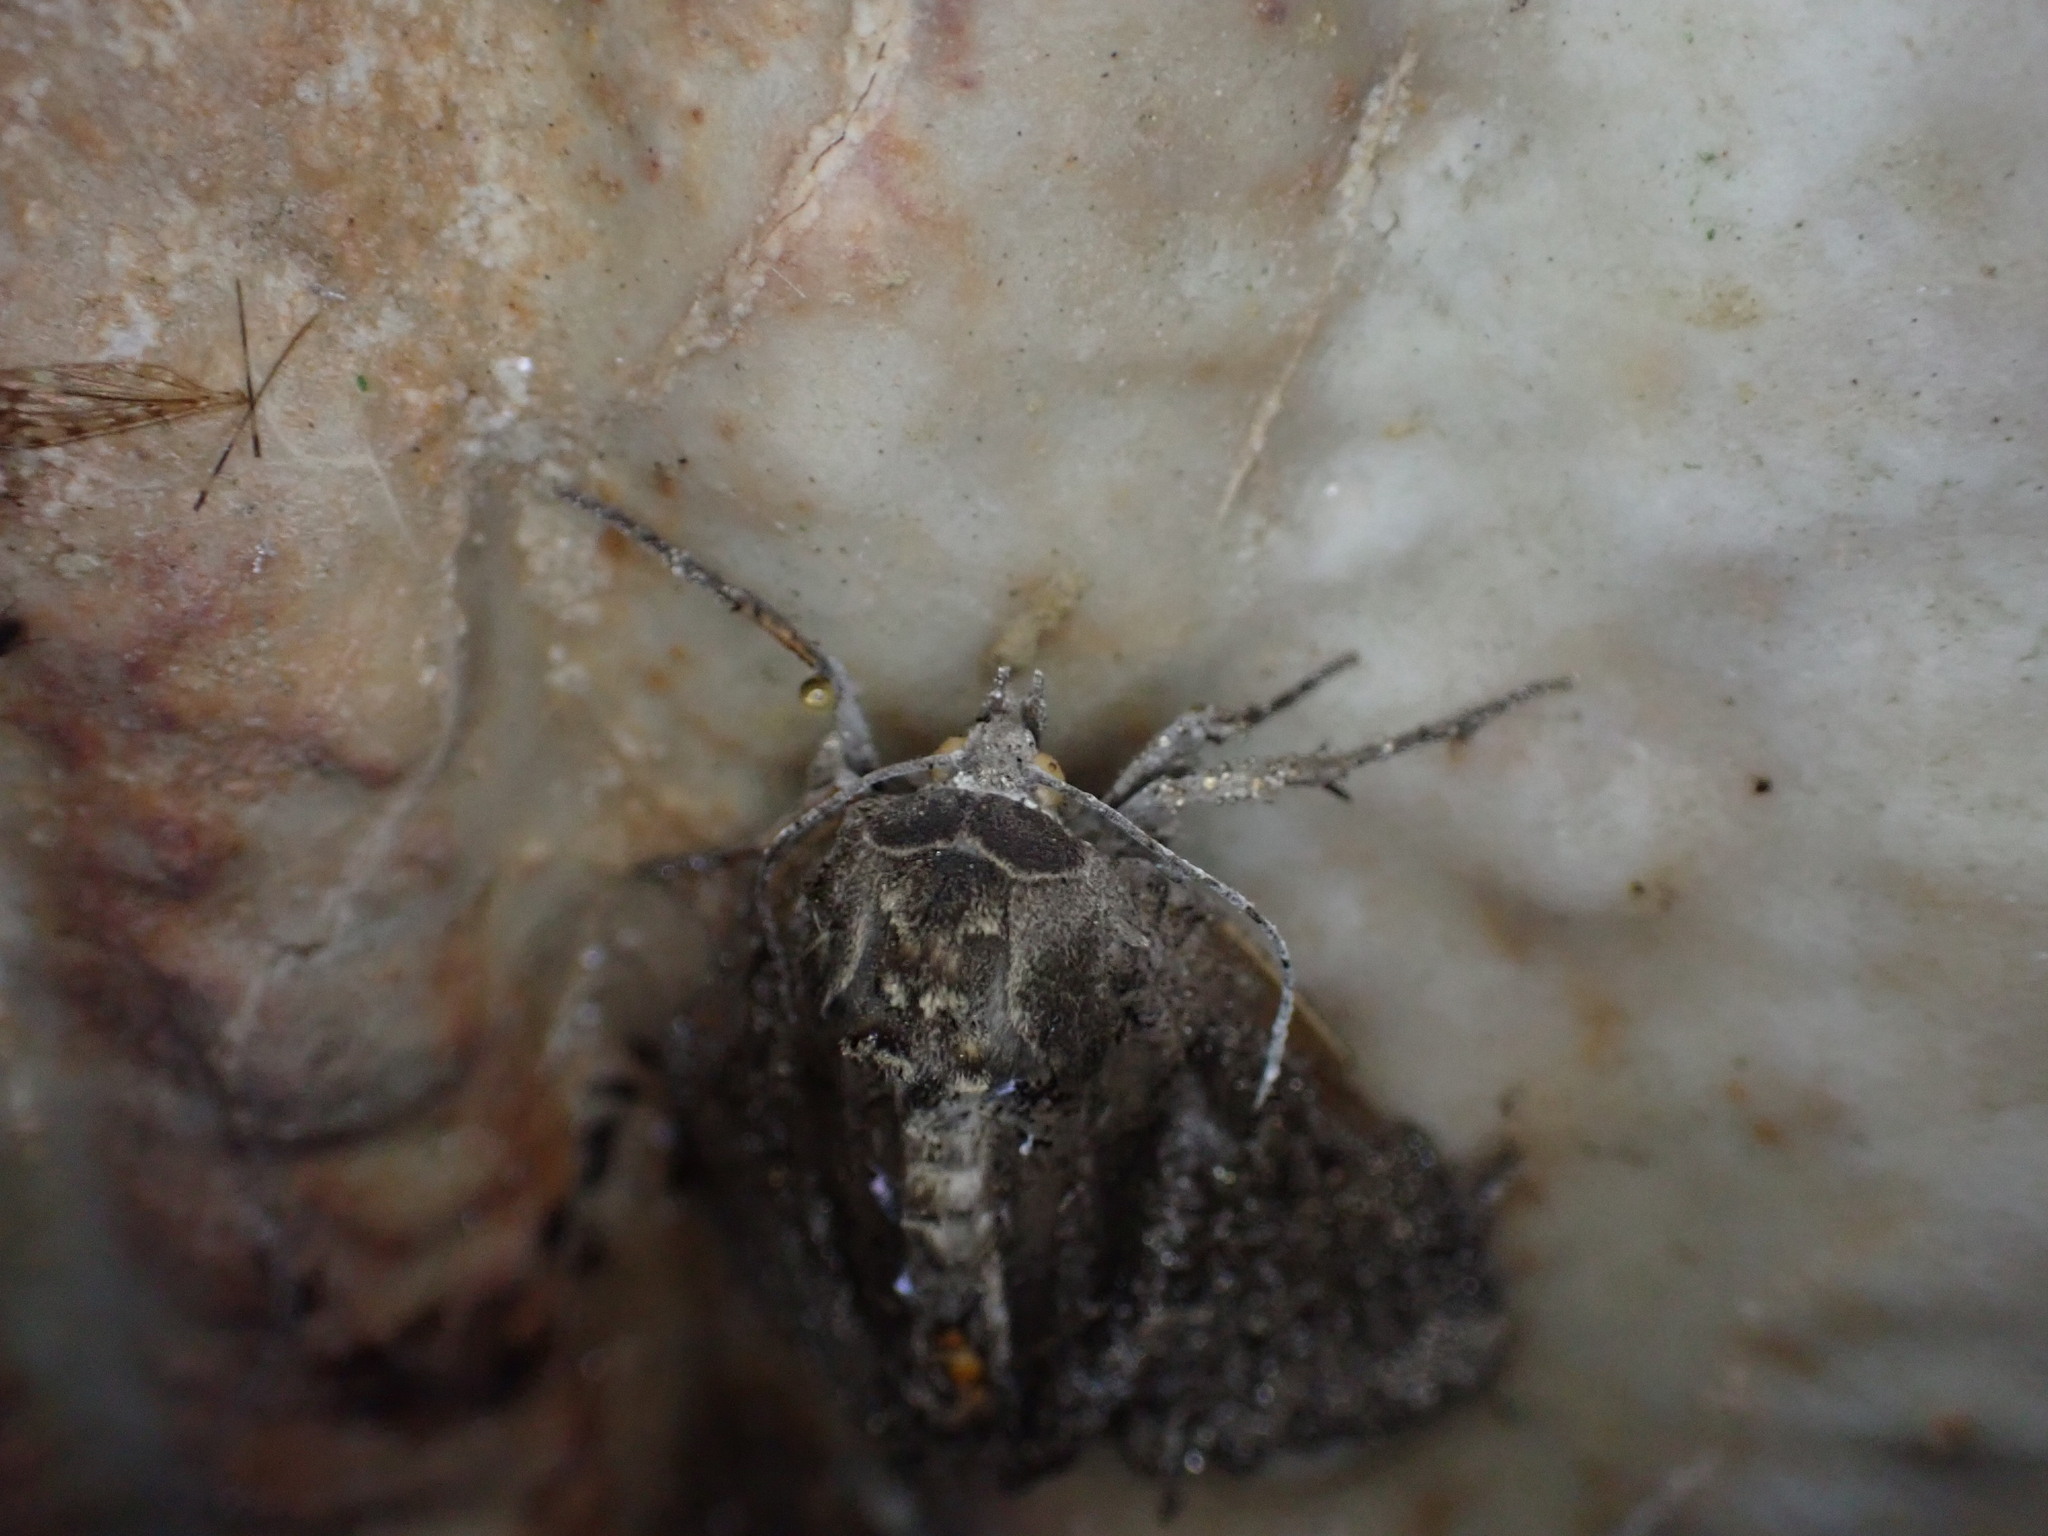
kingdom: Animalia
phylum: Arthropoda
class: Insecta
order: Lepidoptera
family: Noctuidae
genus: Mormo
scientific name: Mormo maura
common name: Old lady
